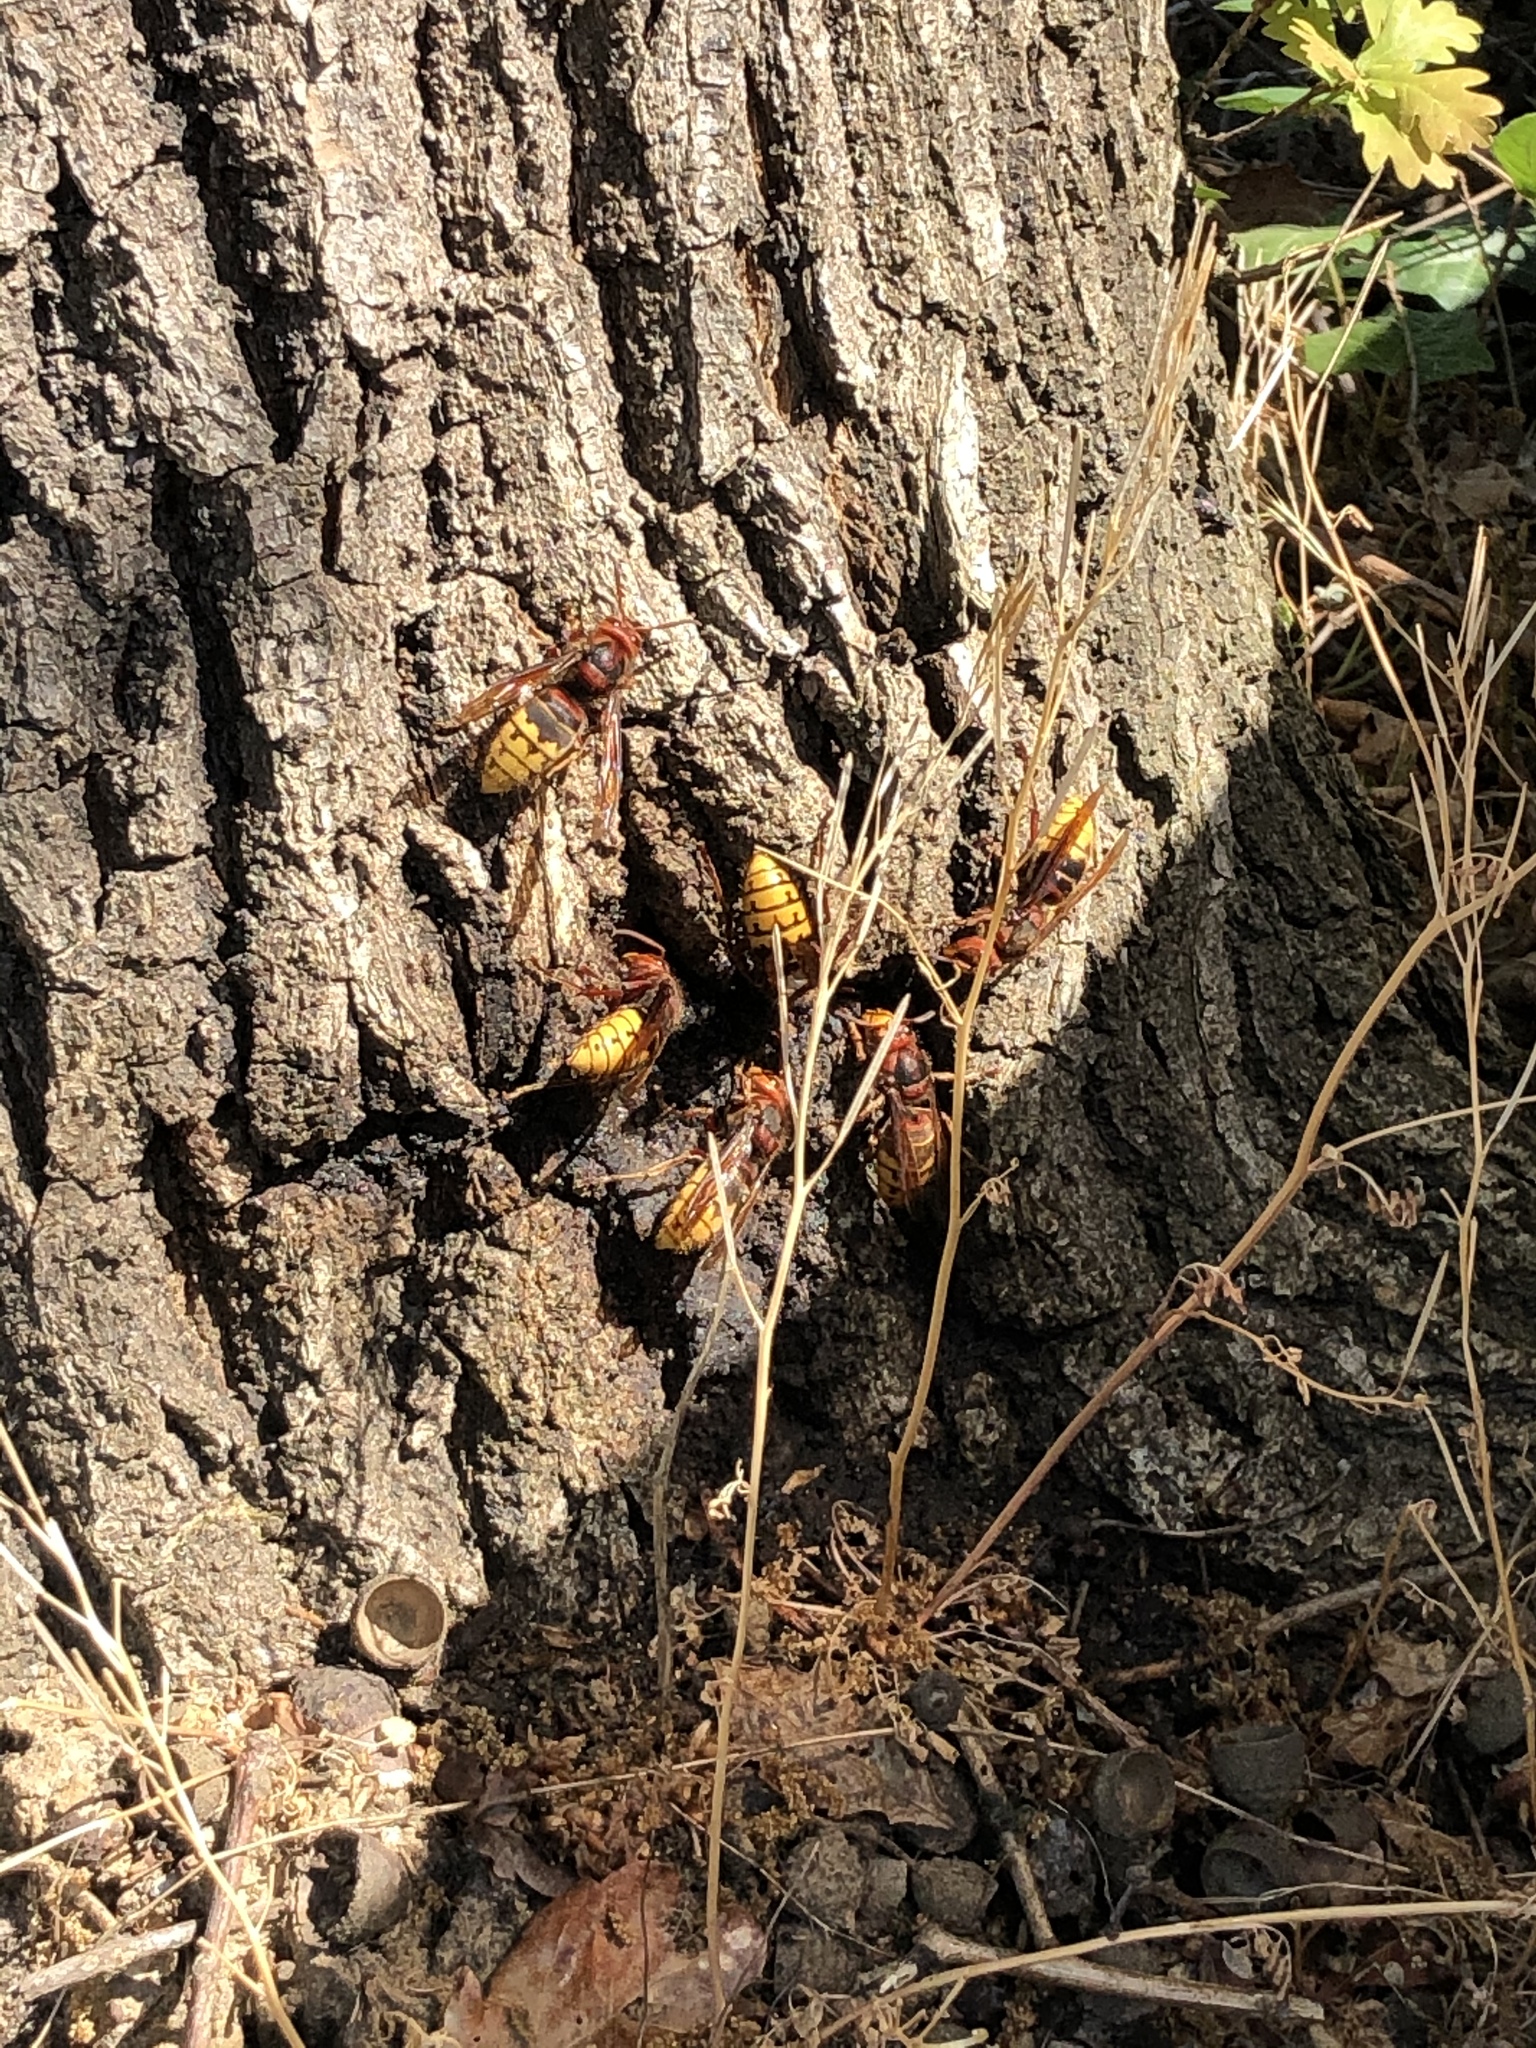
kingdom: Animalia
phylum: Arthropoda
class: Insecta
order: Hymenoptera
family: Vespidae
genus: Vespa
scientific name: Vespa crabro
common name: Hornet
